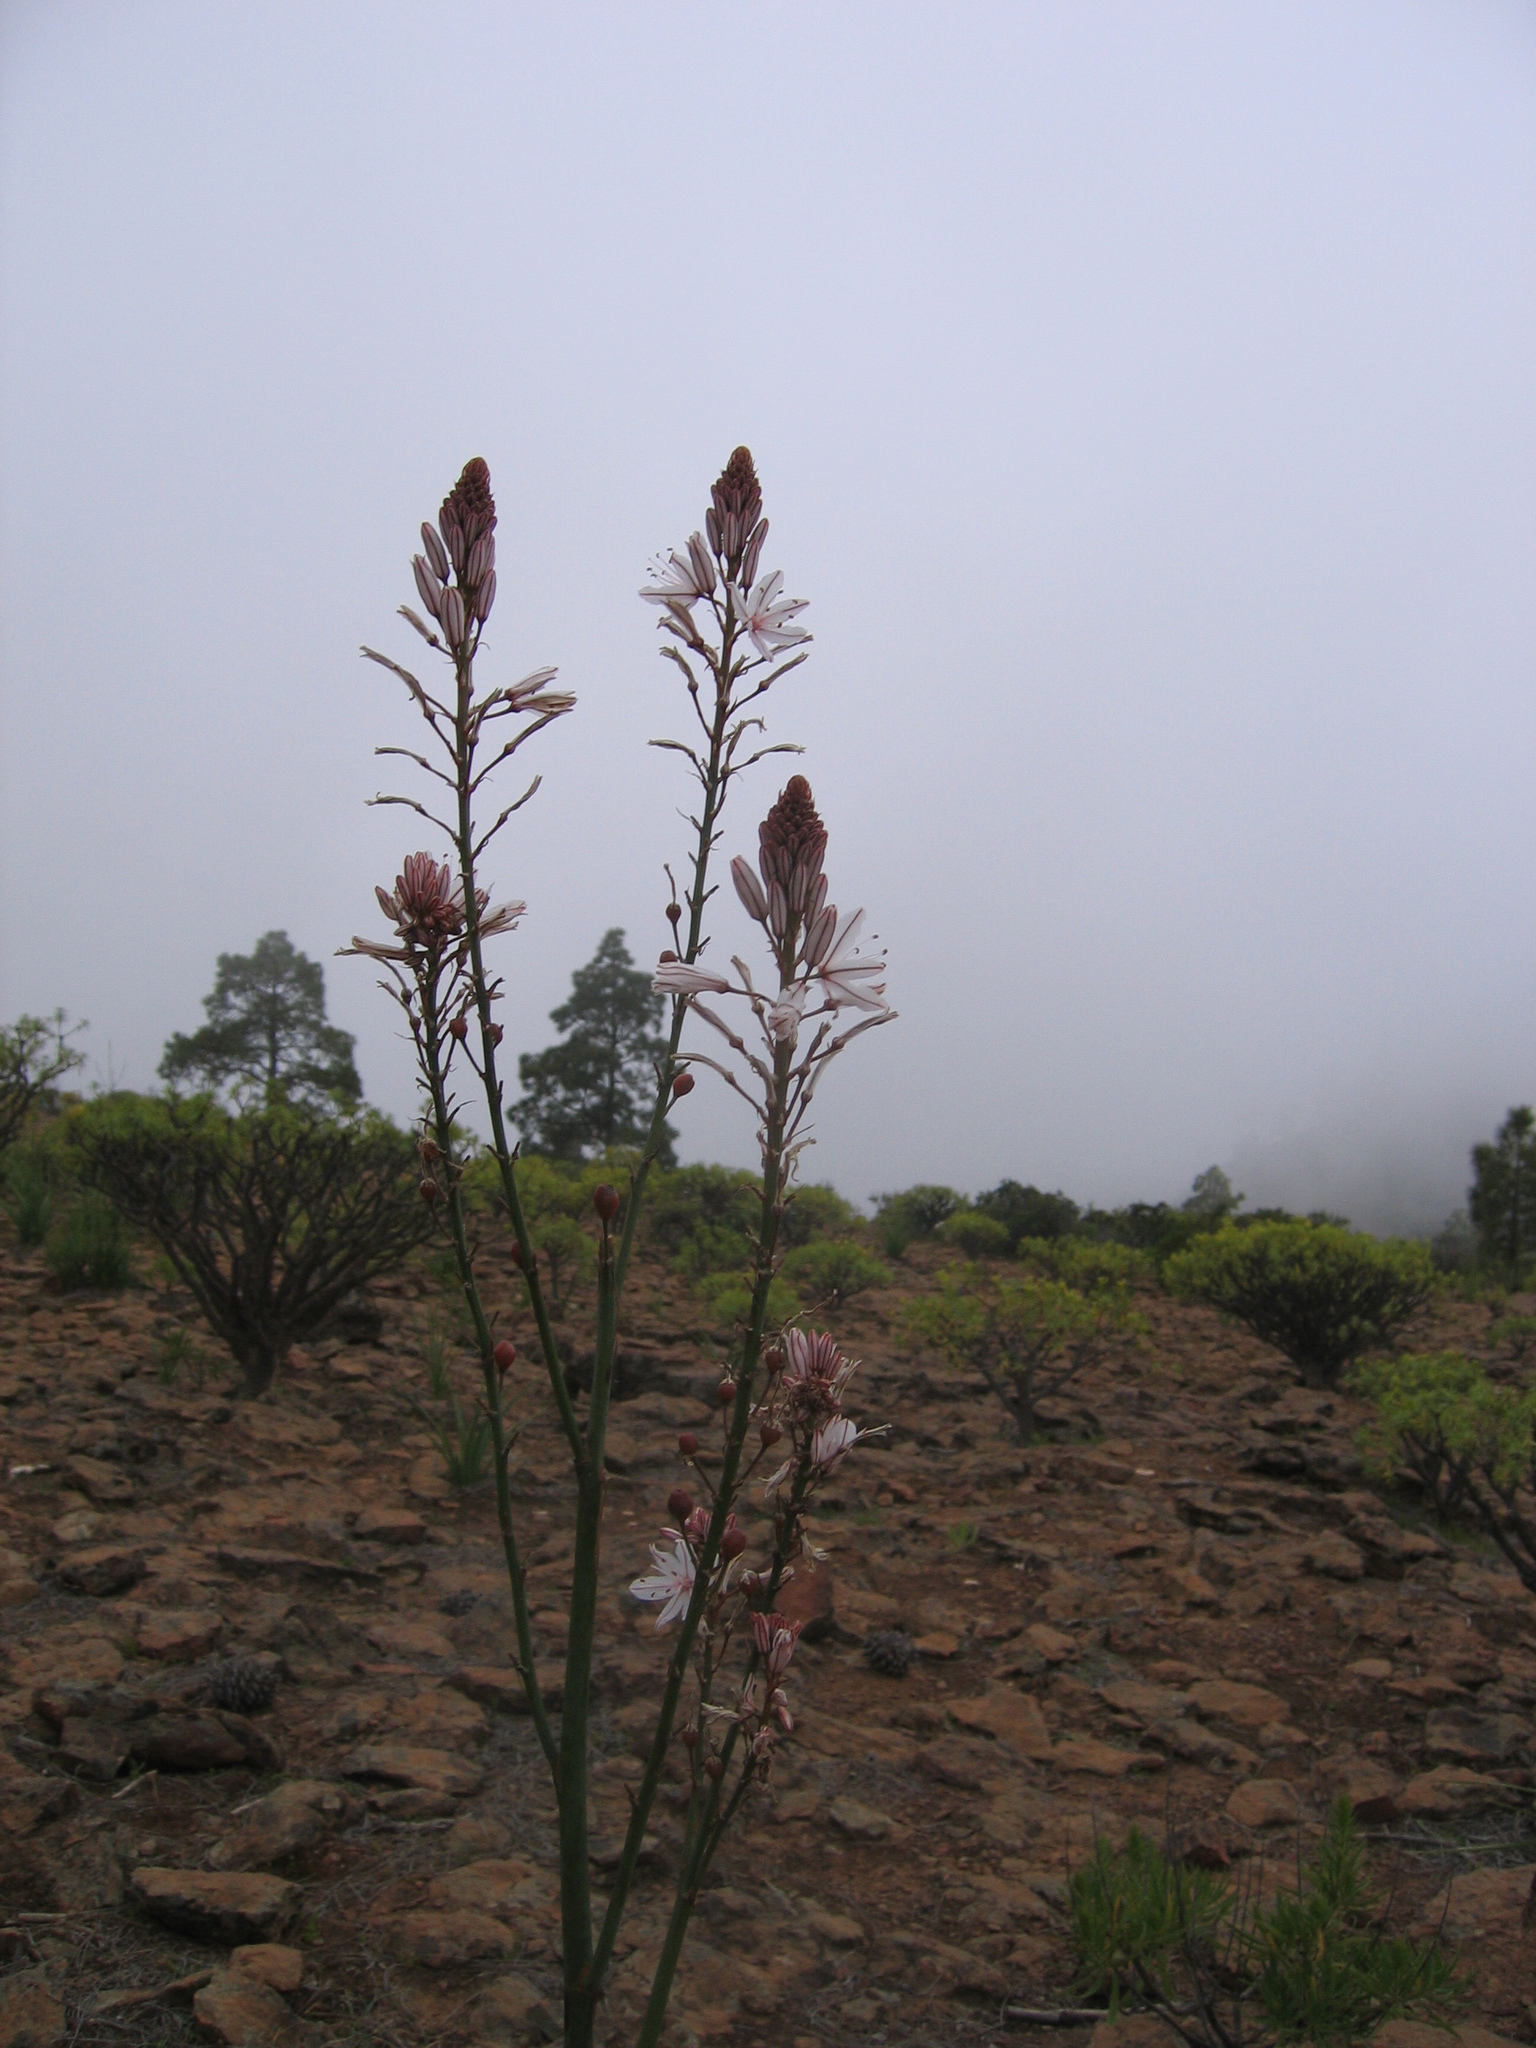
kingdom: Plantae
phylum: Tracheophyta
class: Liliopsida
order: Asparagales
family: Asphodelaceae
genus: Asphodelus
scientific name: Asphodelus ramosus
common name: Silverrod
